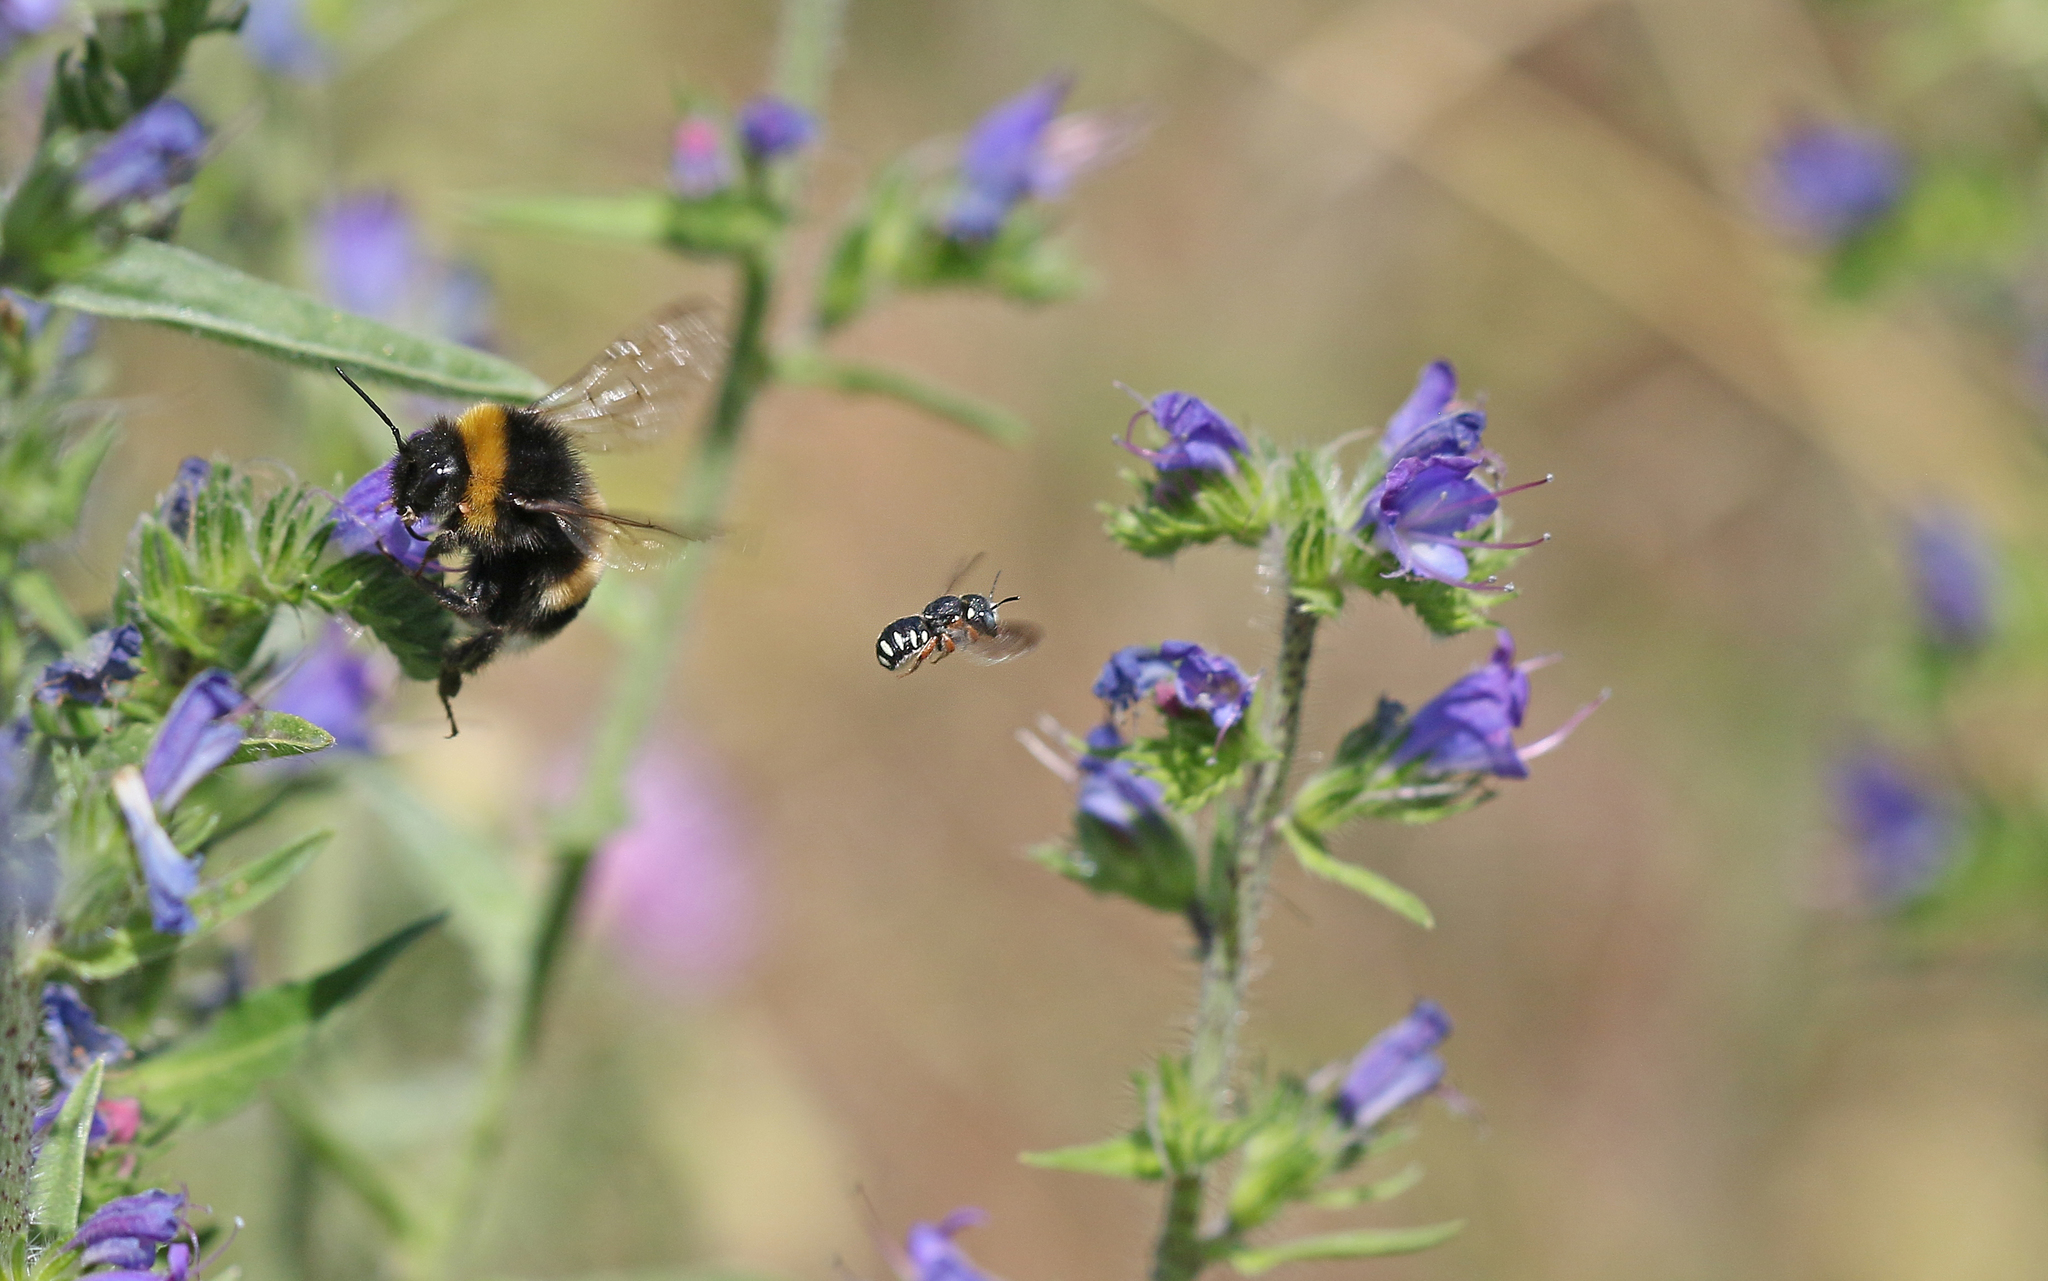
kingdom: Animalia
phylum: Arthropoda
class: Insecta
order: Hymenoptera
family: Megachilidae
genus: Pseudoanthidium
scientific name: Pseudoanthidium tenellum
